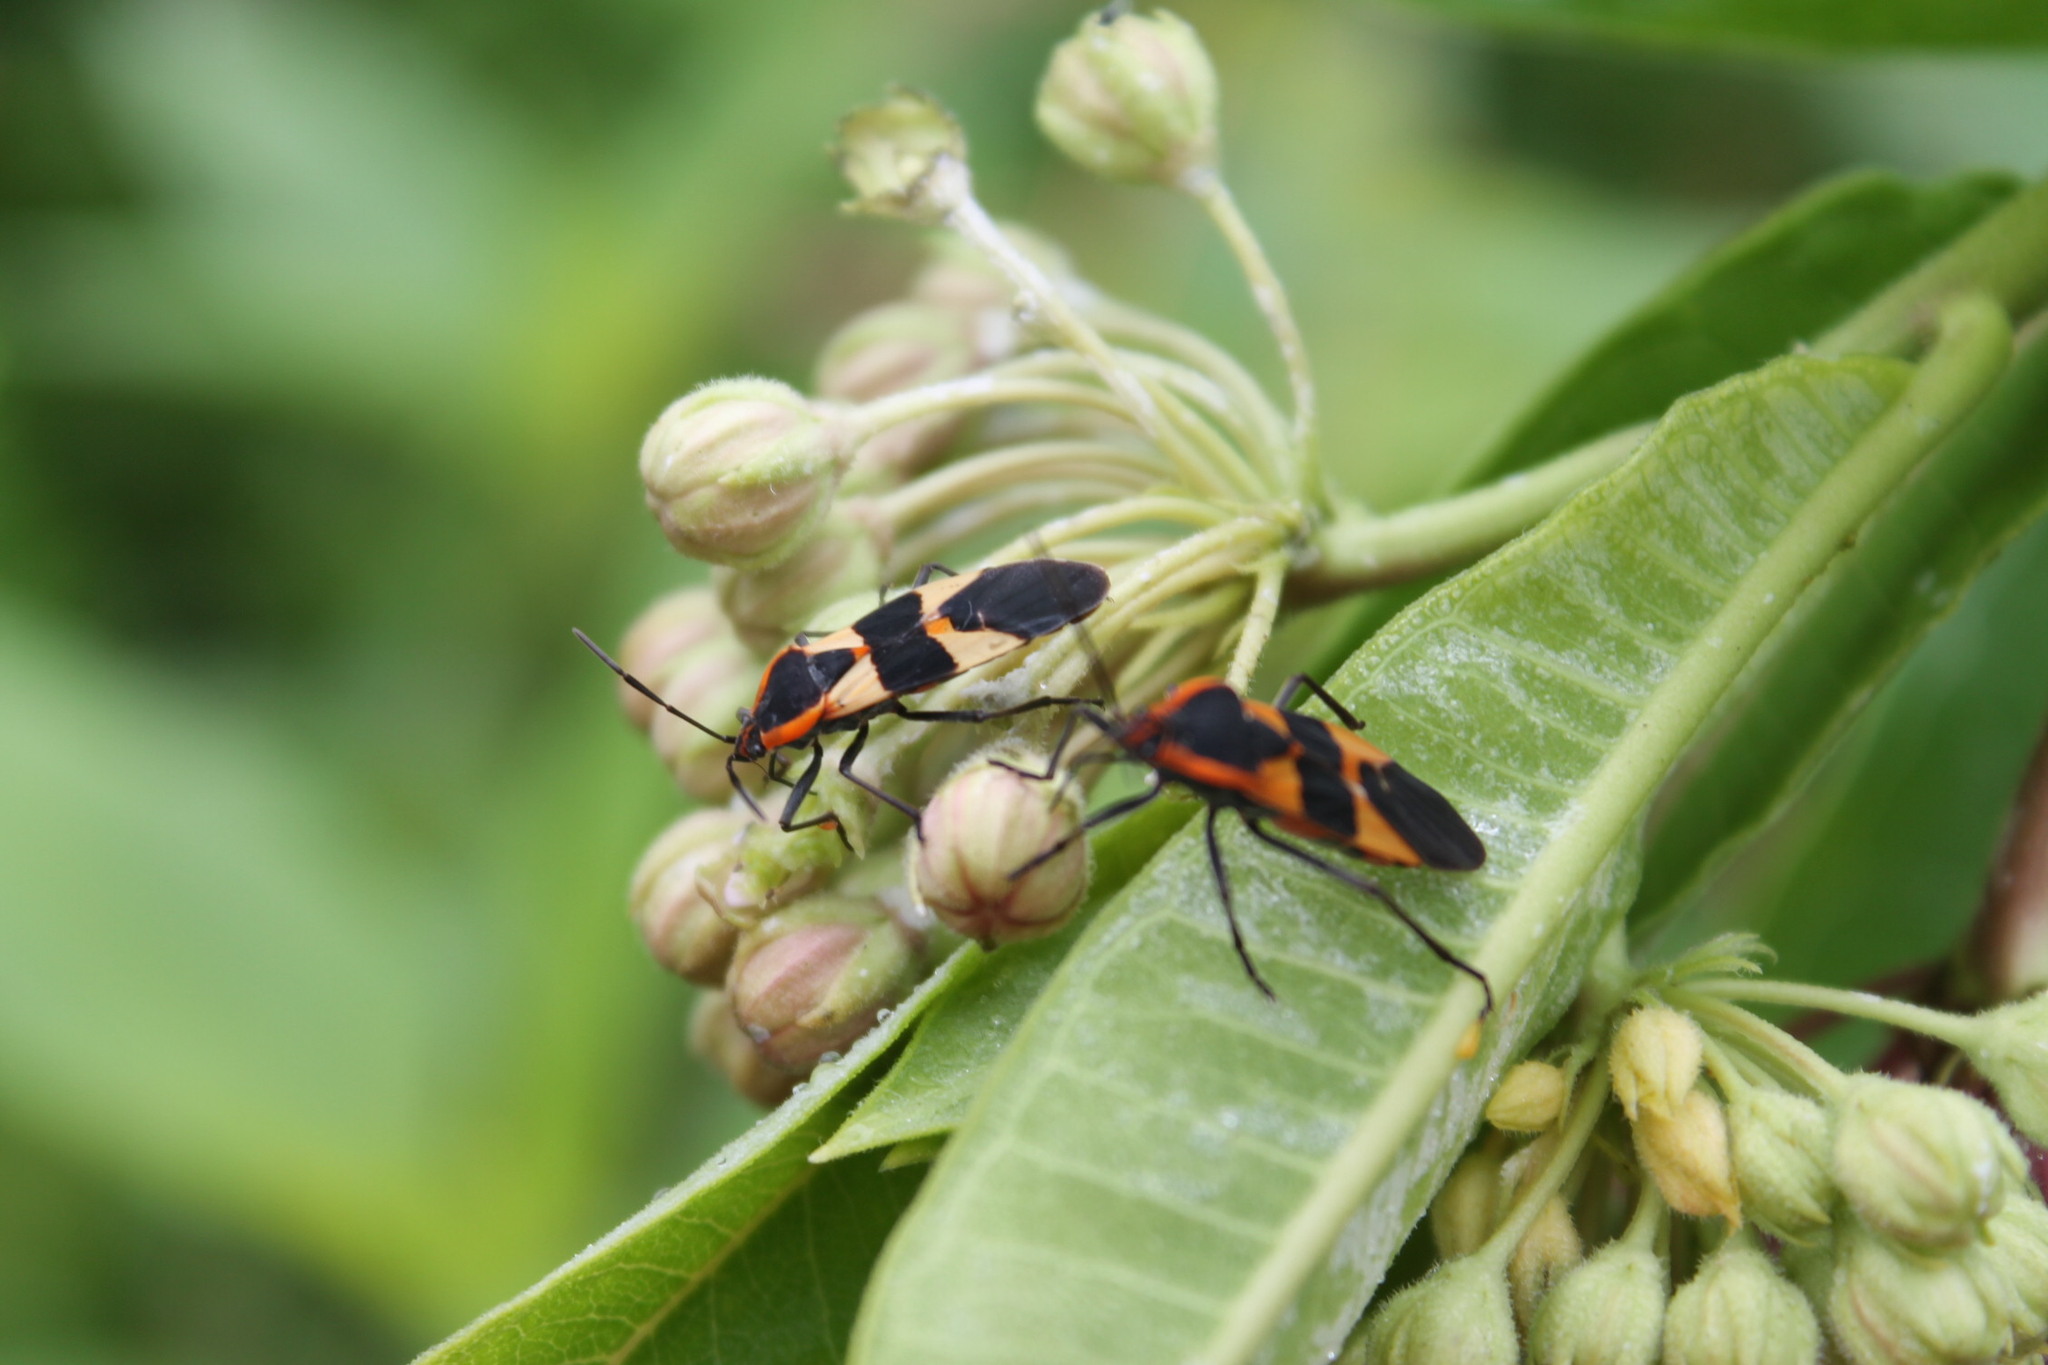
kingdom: Animalia
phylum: Arthropoda
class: Insecta
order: Hemiptera
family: Lygaeidae
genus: Oncopeltus
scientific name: Oncopeltus fasciatus
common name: Large milkweed bug
